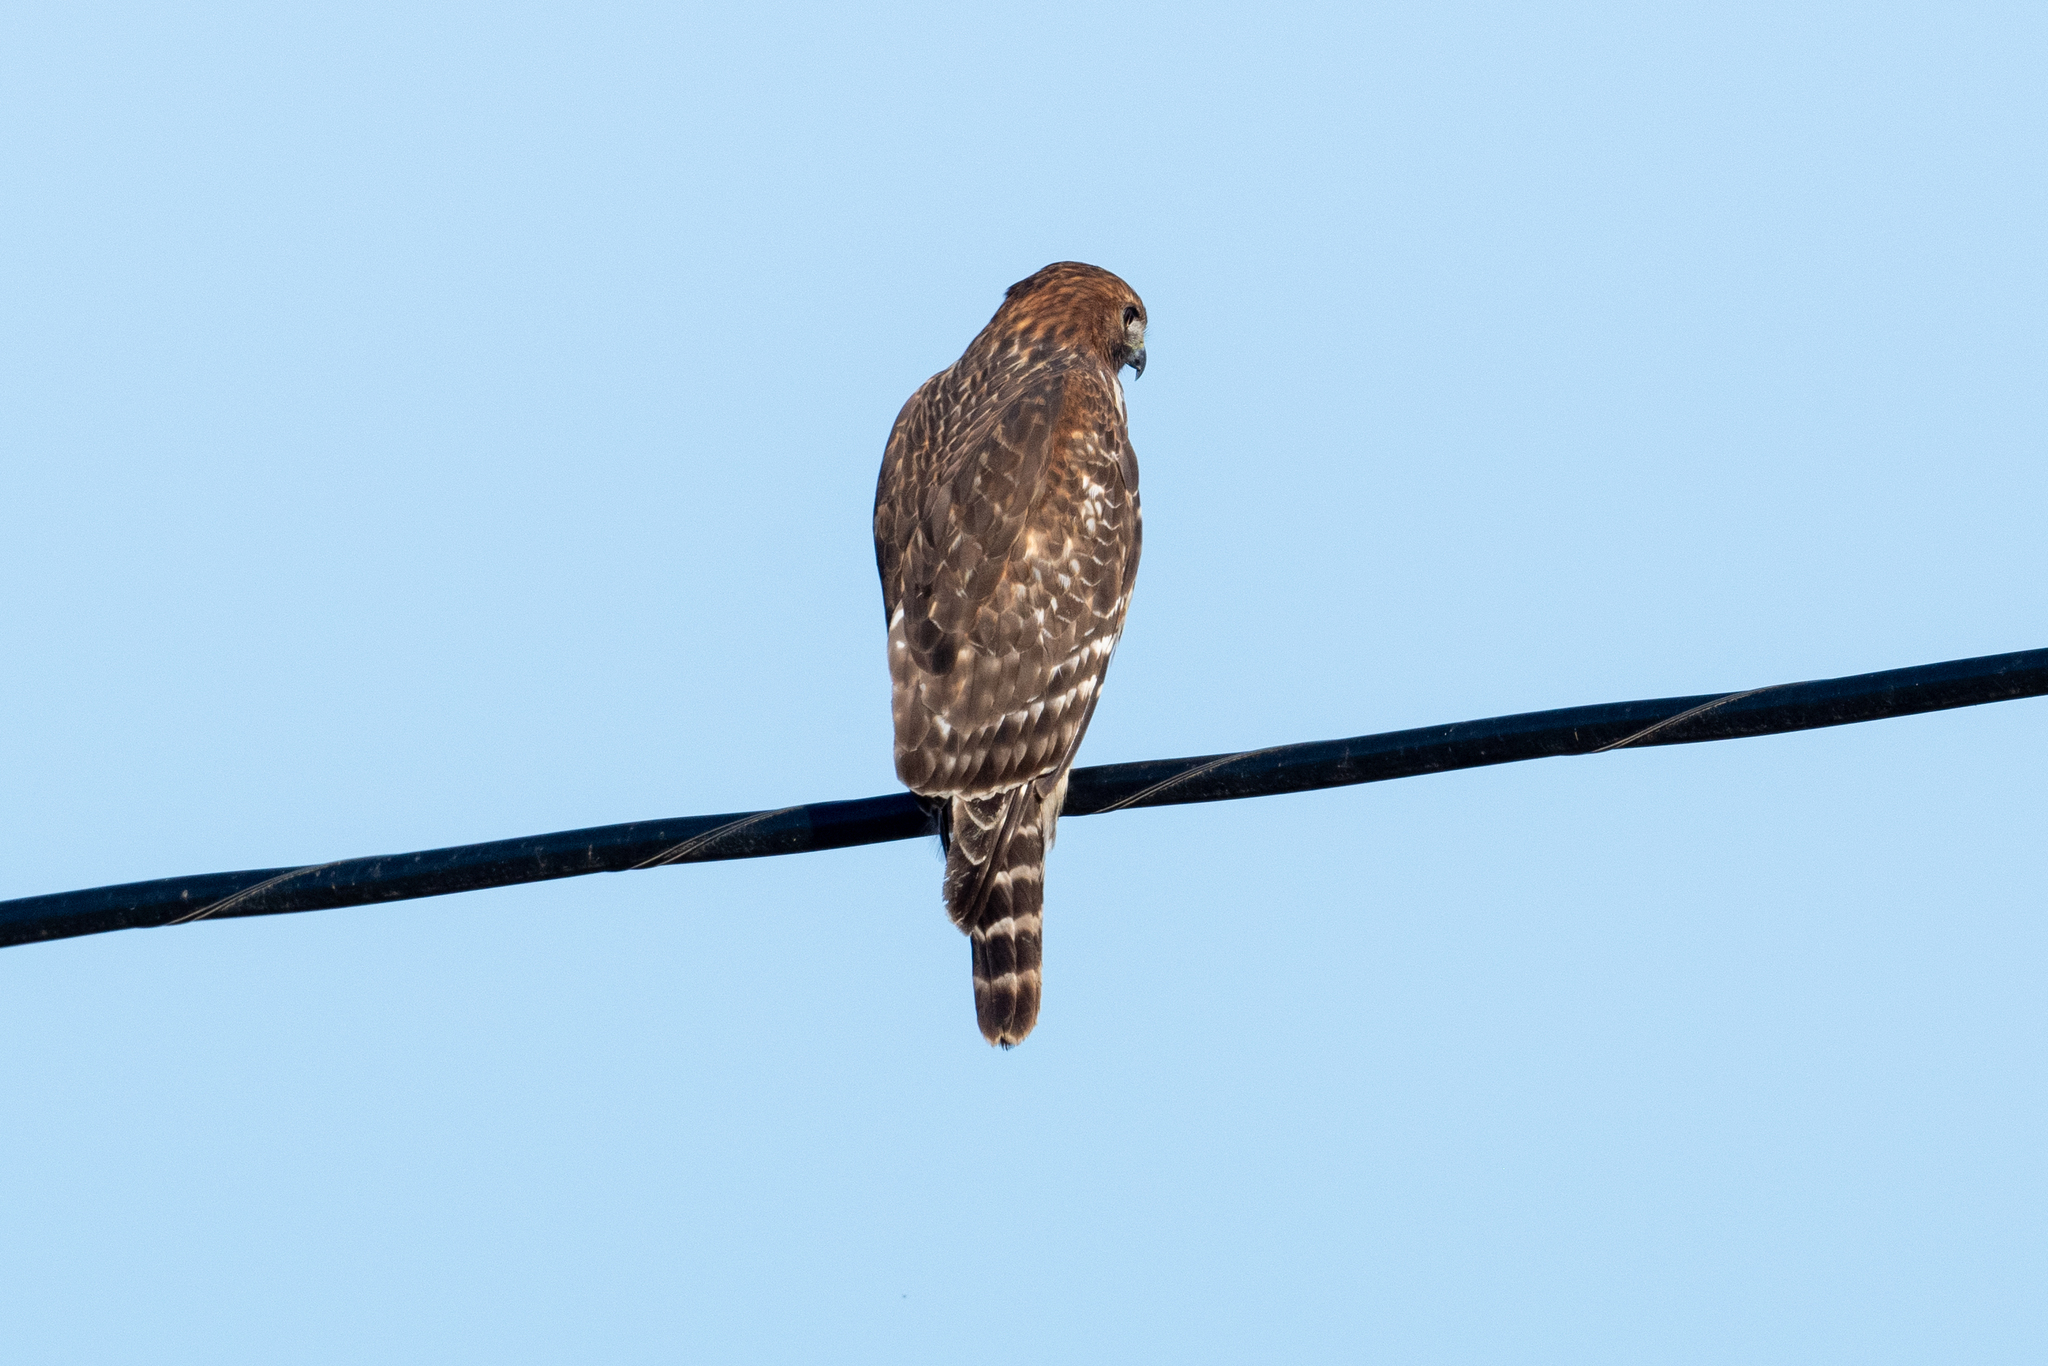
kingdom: Animalia
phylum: Chordata
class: Aves
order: Accipitriformes
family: Accipitridae
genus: Buteo
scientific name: Buteo lineatus
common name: Red-shouldered hawk
